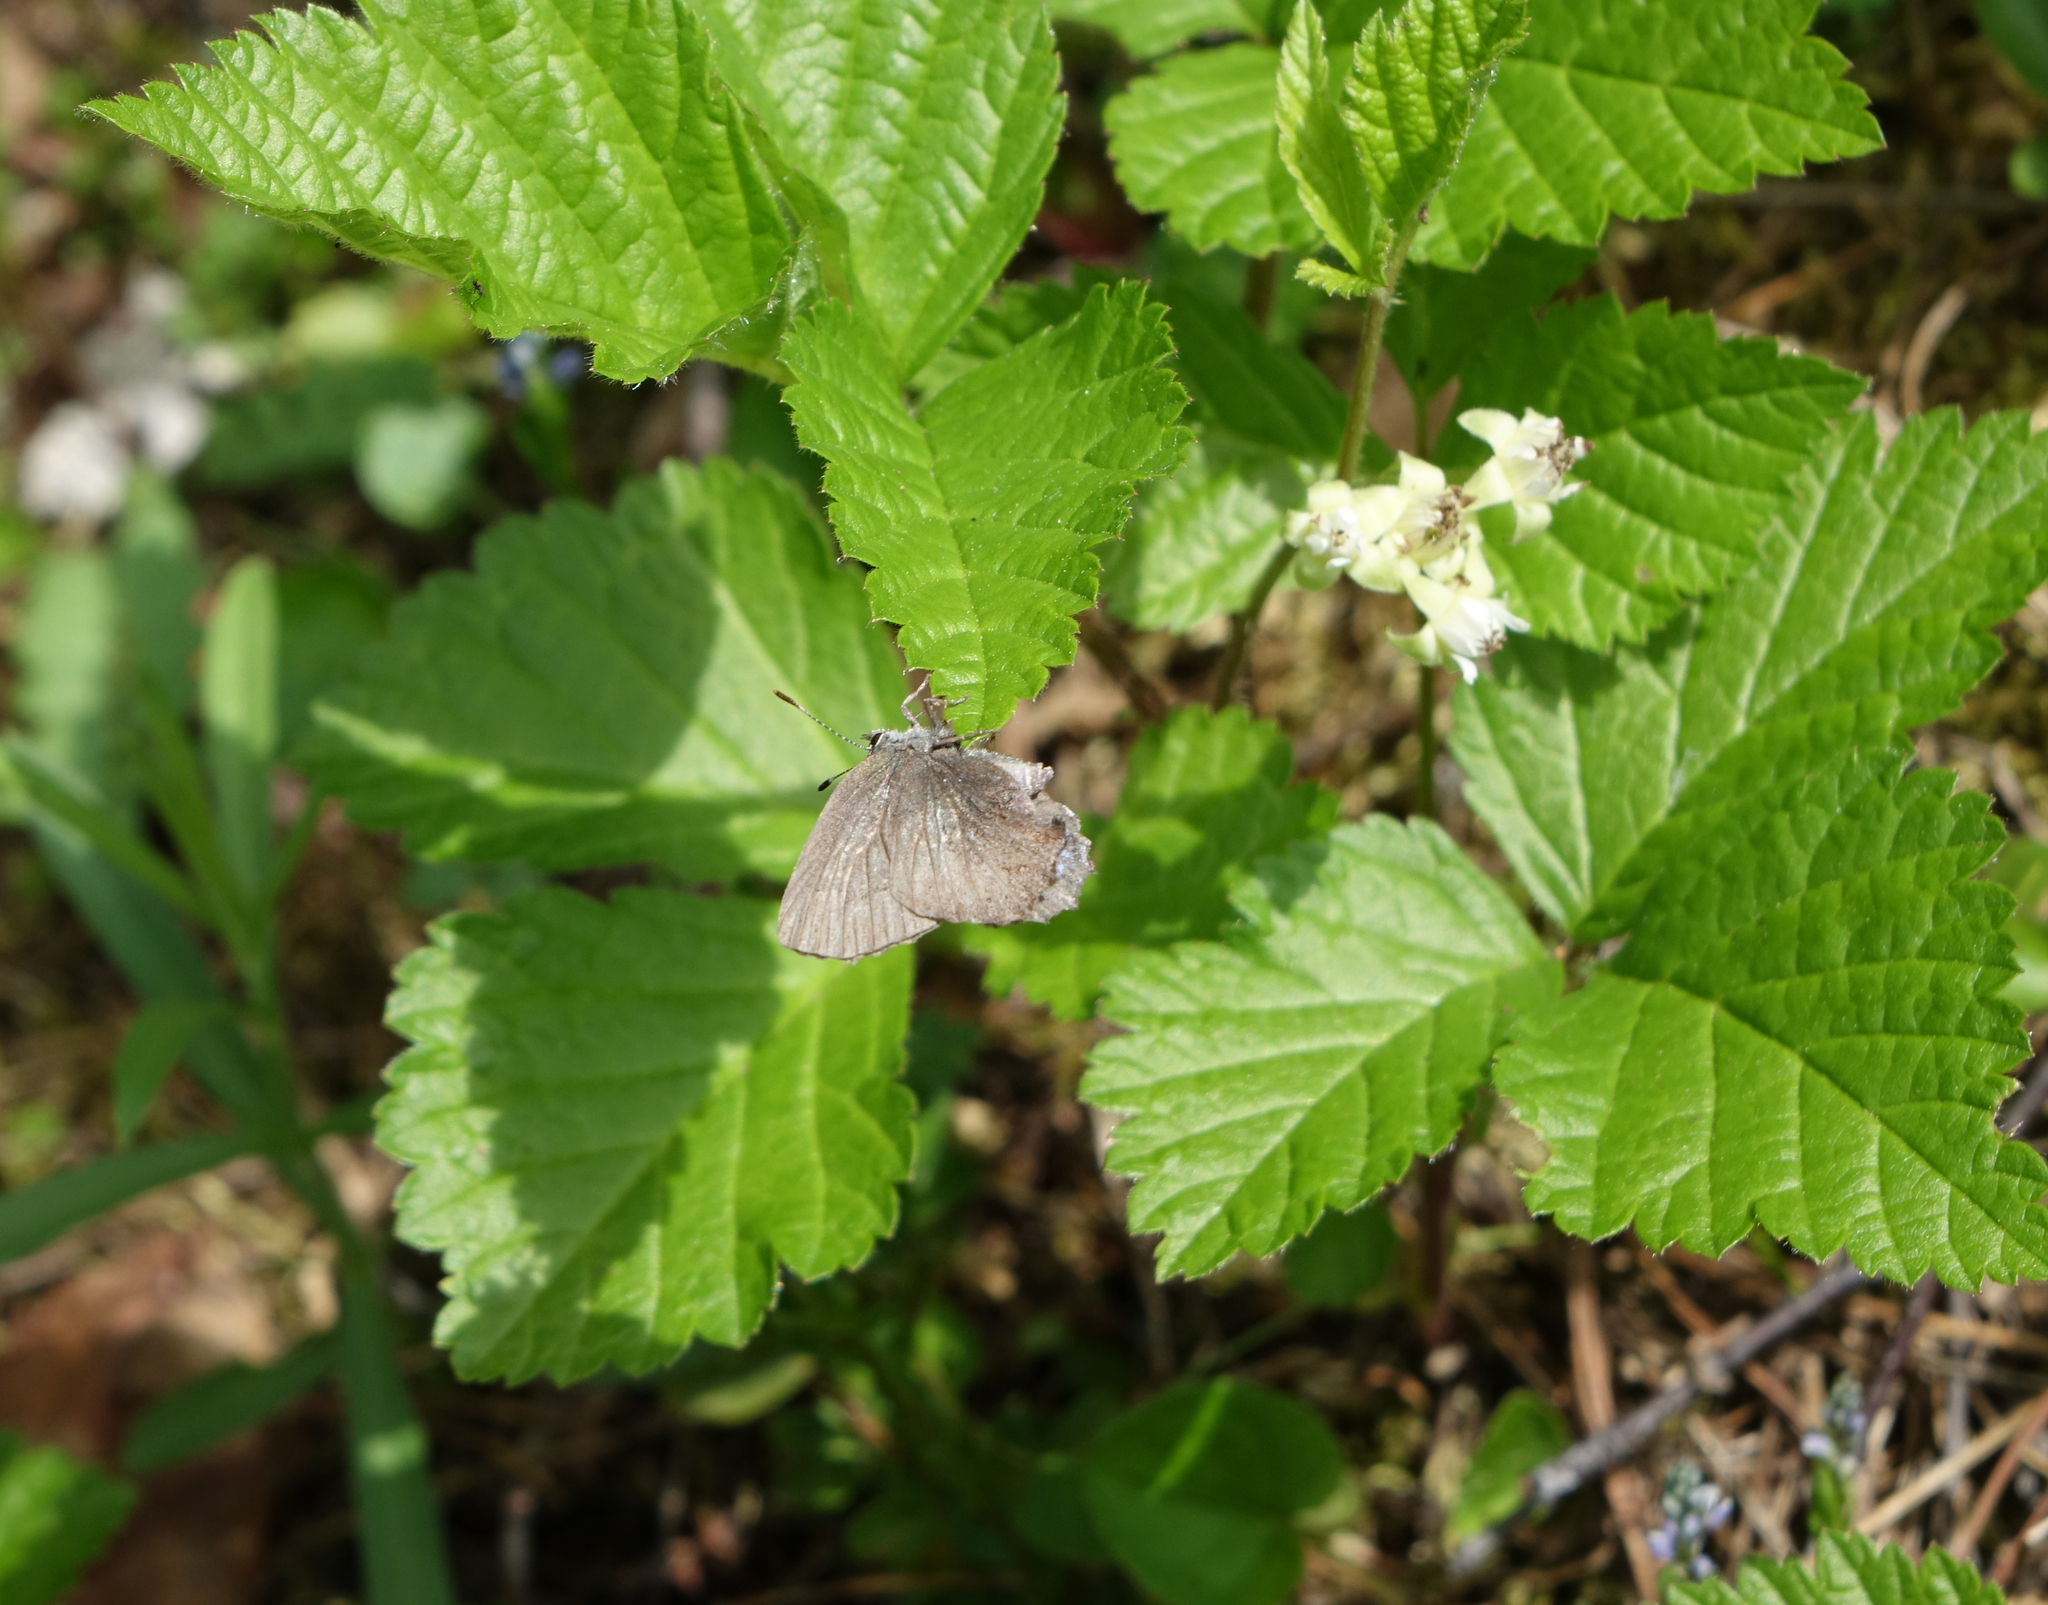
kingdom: Plantae
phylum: Tracheophyta
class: Magnoliopsida
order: Rosales
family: Rosaceae
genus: Rubus
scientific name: Rubus saxatilis
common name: Stone bramble
